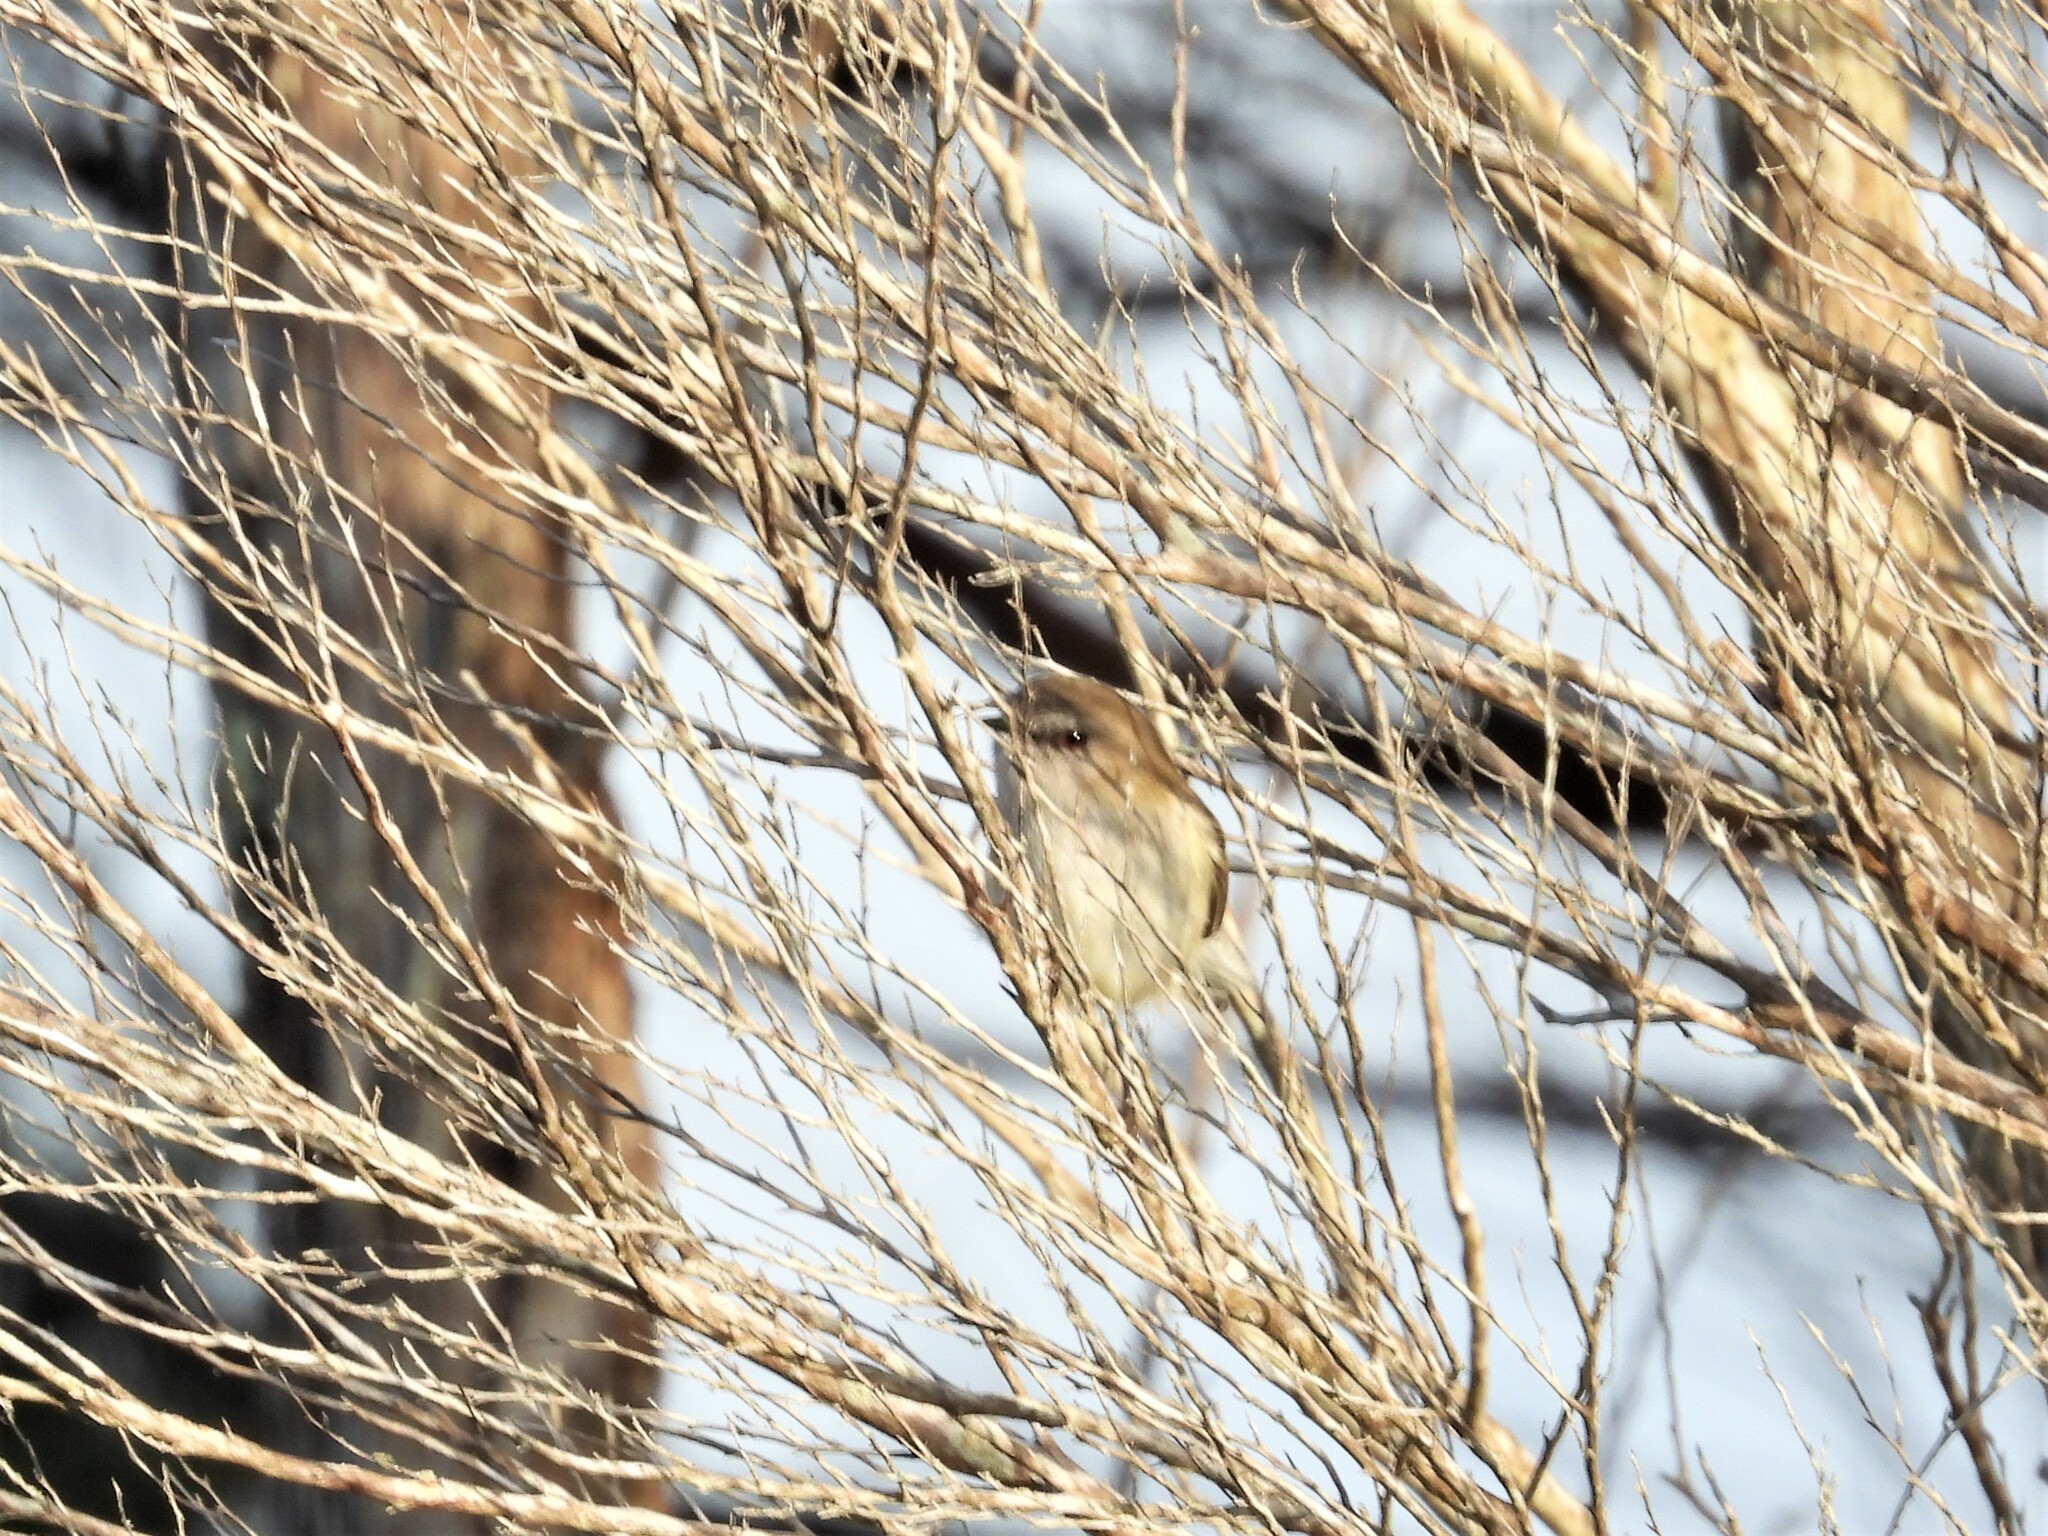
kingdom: Animalia
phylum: Chordata
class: Aves
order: Passeriformes
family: Acanthizidae
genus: Gerygone
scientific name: Gerygone igata
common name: Grey gerygone
